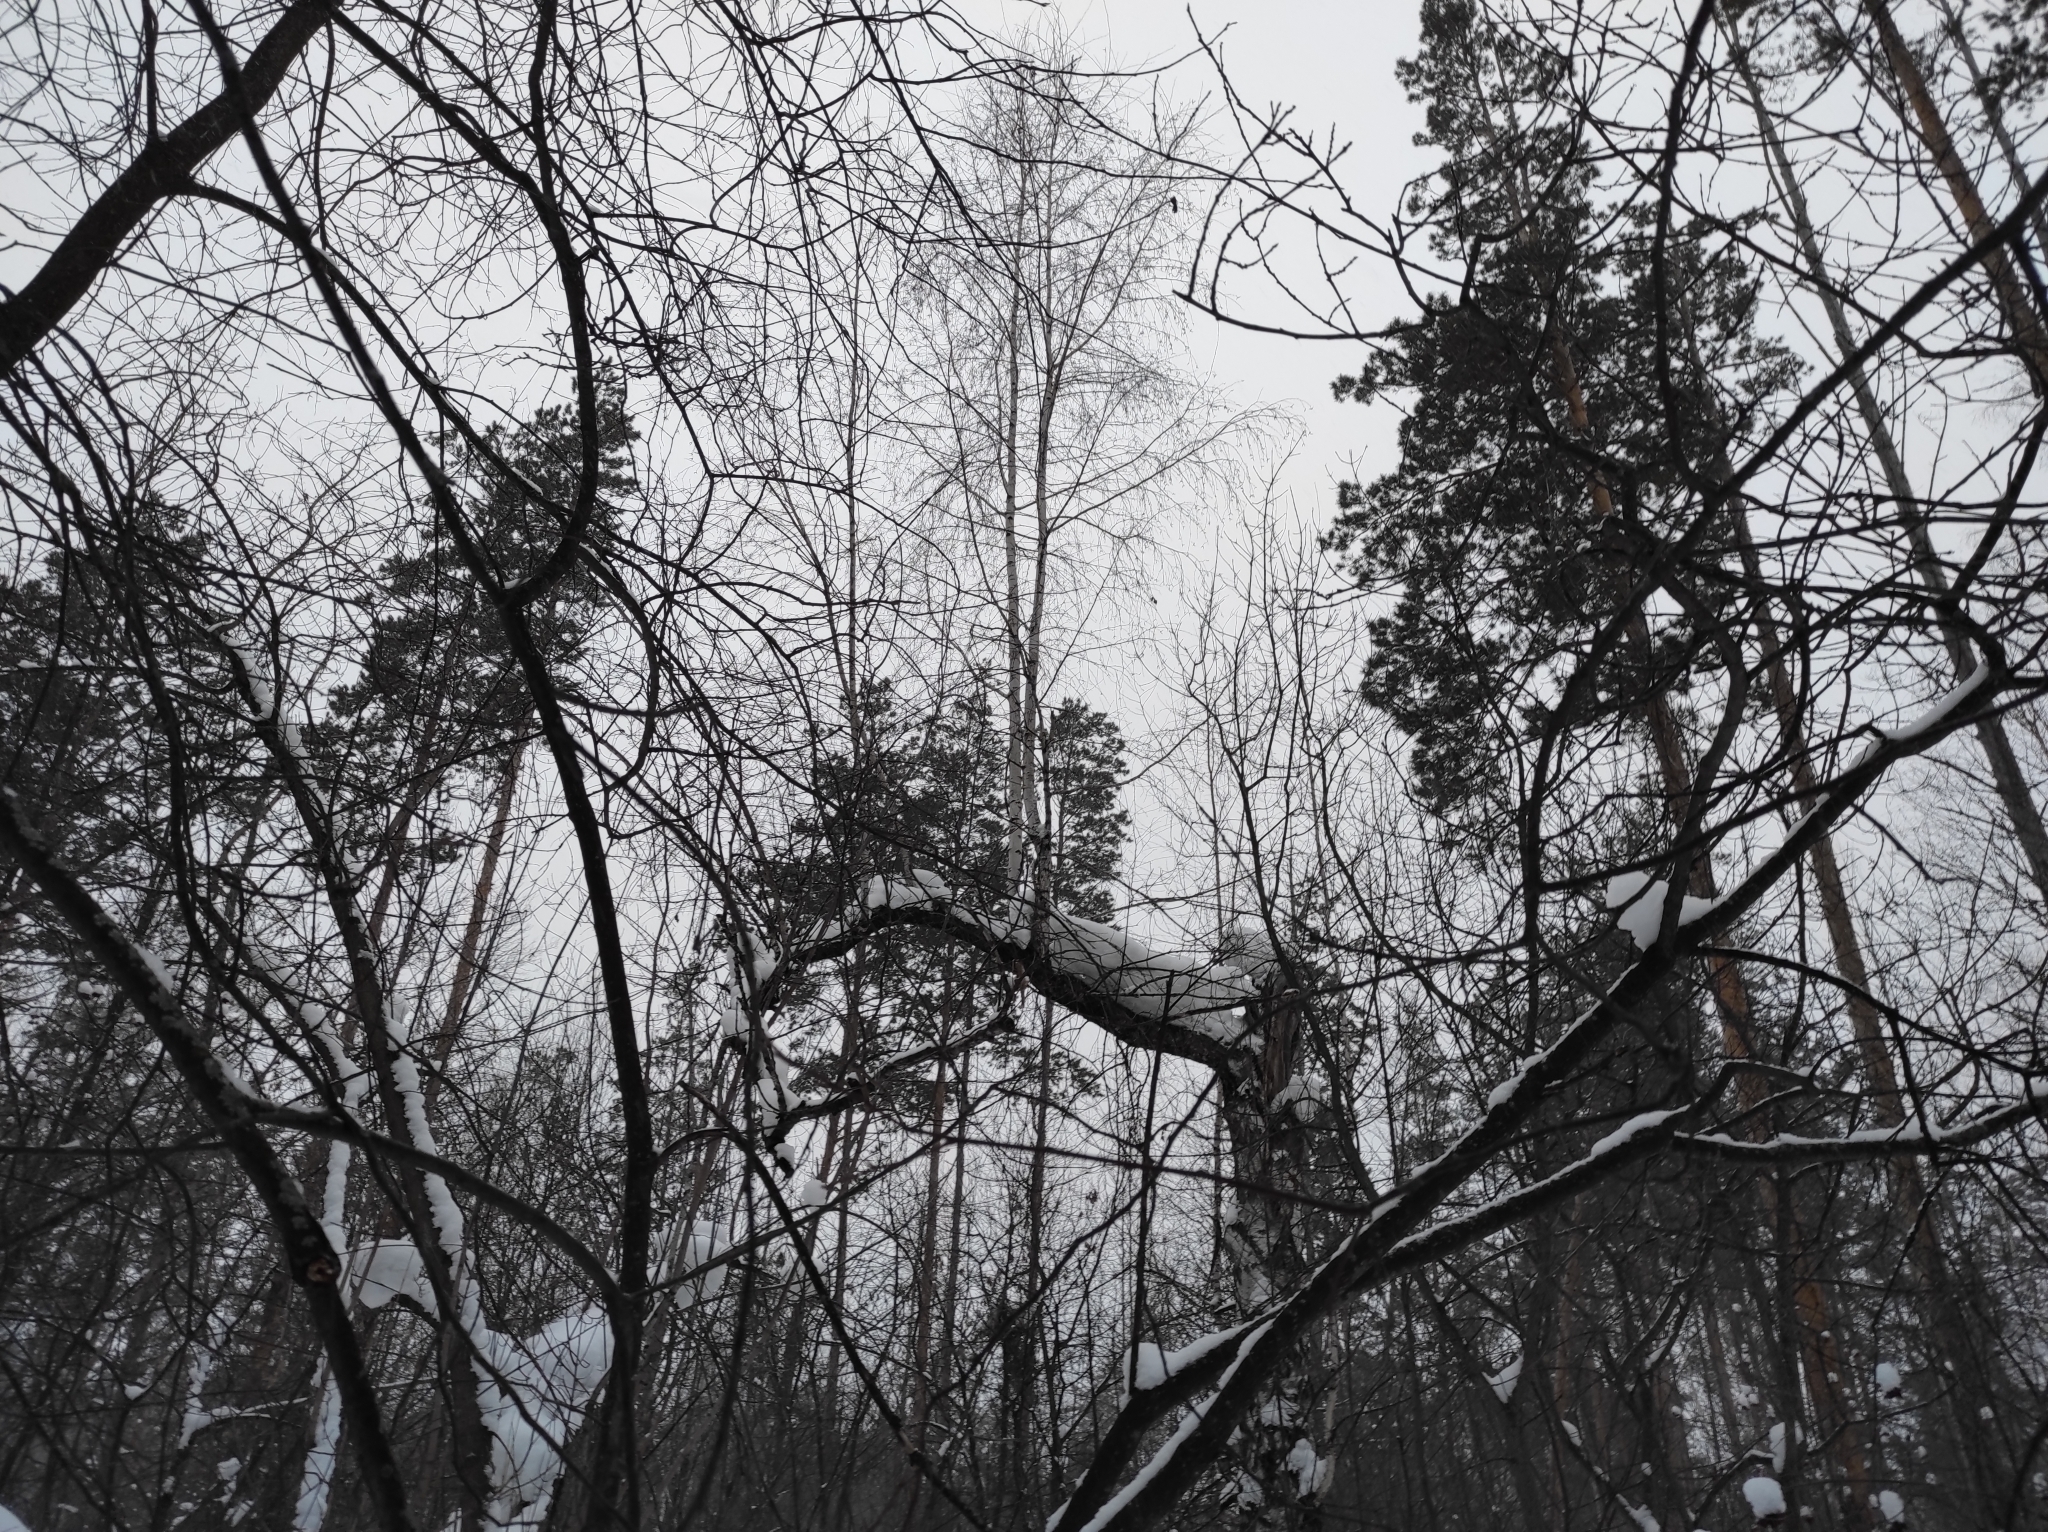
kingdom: Plantae
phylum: Tracheophyta
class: Magnoliopsida
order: Fagales
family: Betulaceae
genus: Betula
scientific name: Betula pendula
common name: Silver birch
